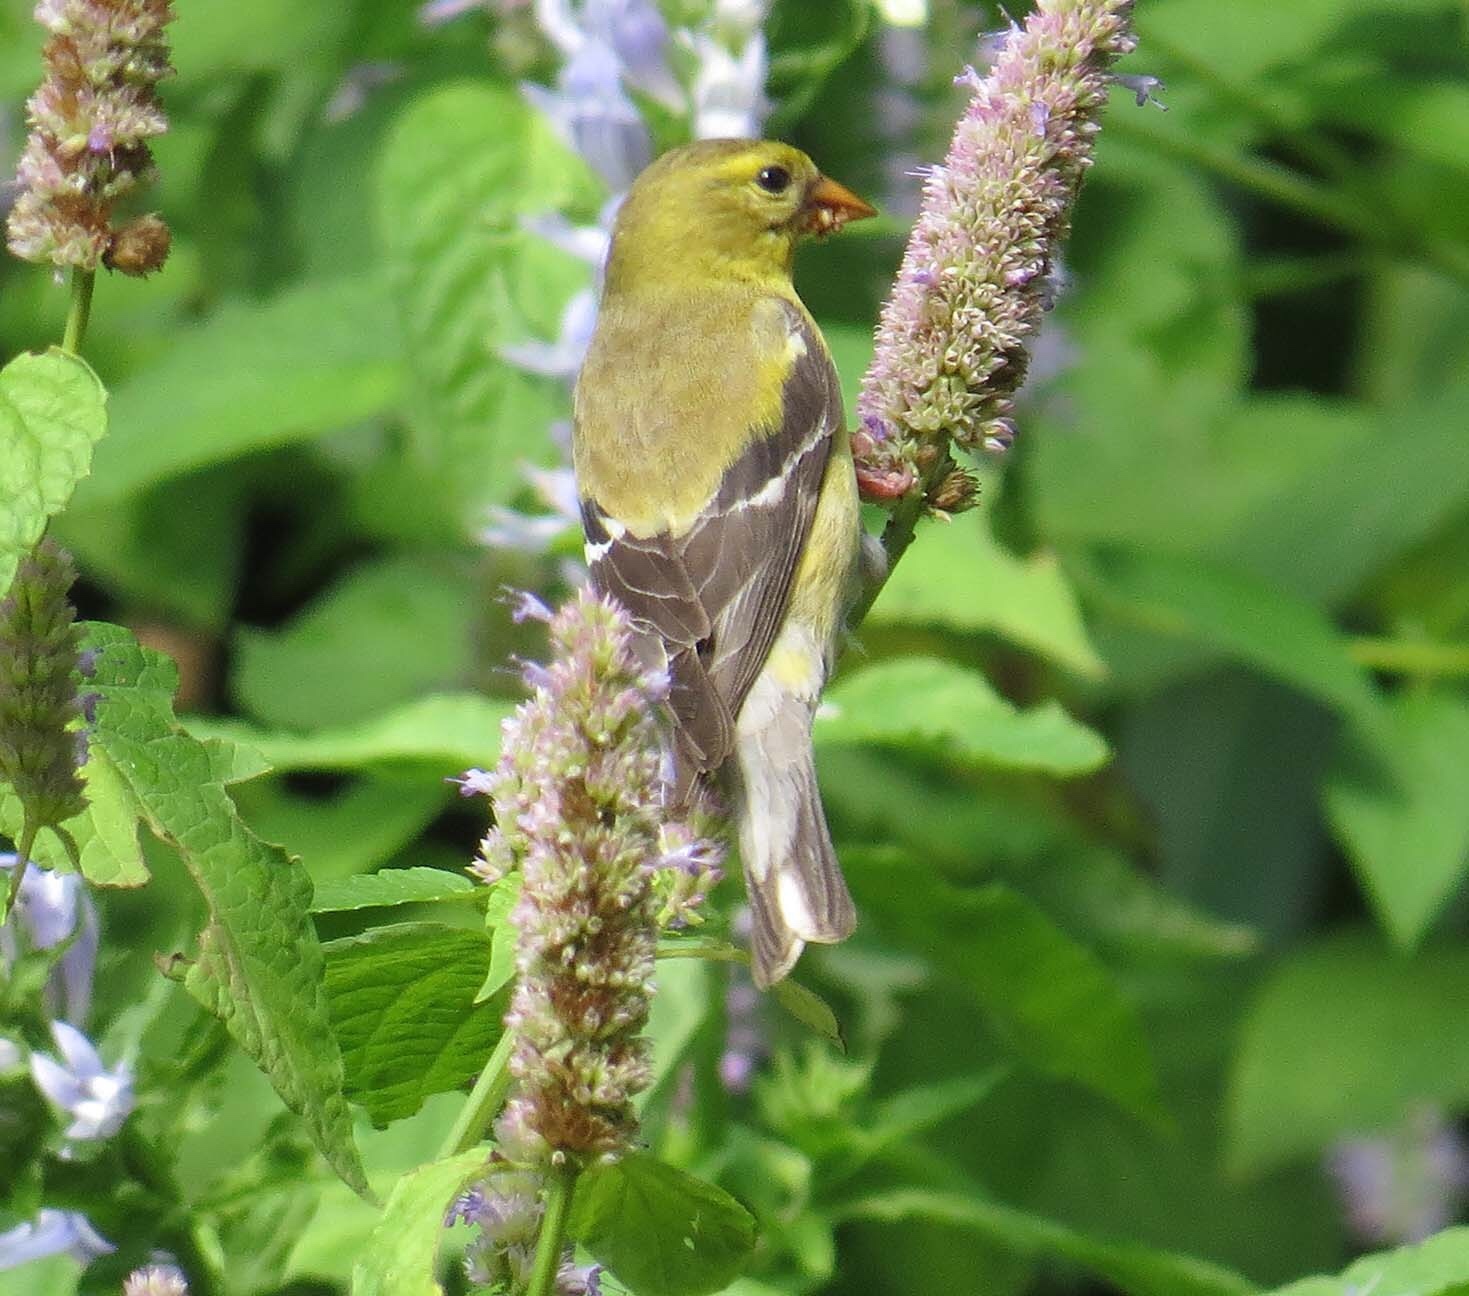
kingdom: Animalia
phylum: Chordata
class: Aves
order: Passeriformes
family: Fringillidae
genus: Spinus
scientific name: Spinus tristis
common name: American goldfinch
